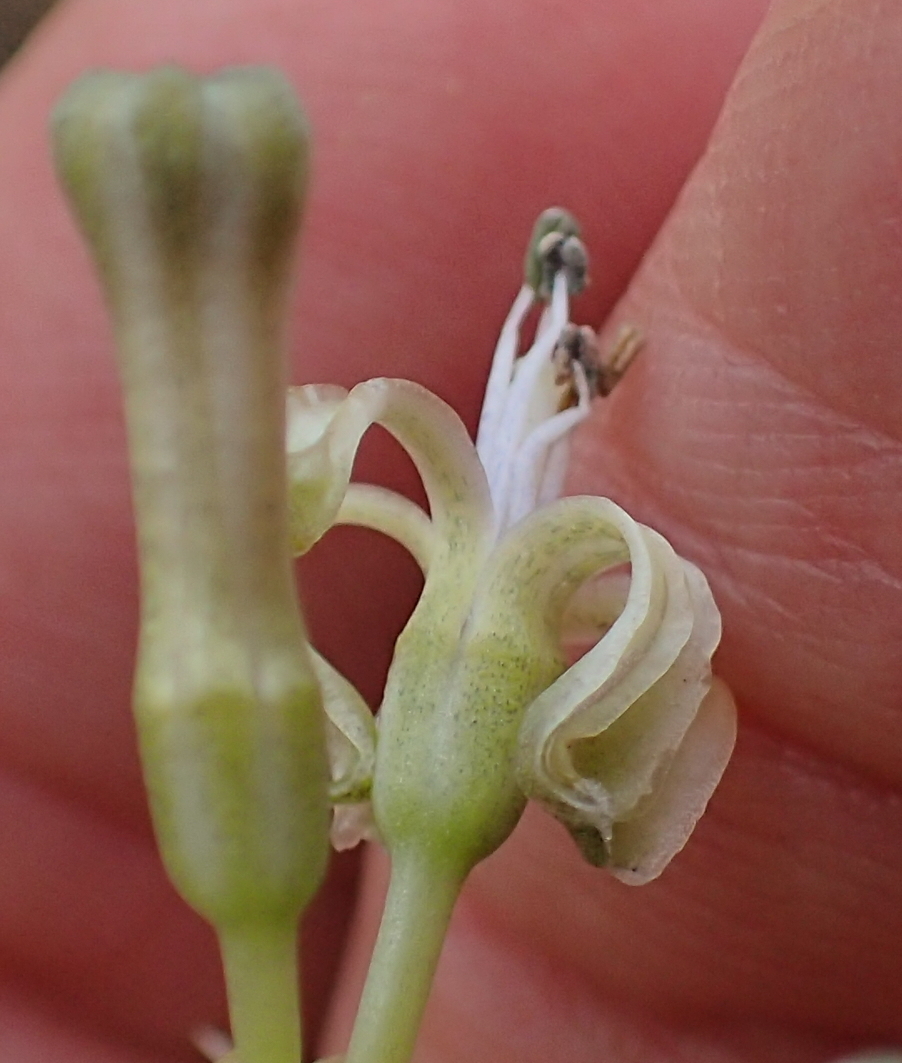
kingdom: Plantae
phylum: Tracheophyta
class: Liliopsida
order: Asparagales
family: Asparagaceae
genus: Drimia
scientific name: Drimia sphaerocephala
